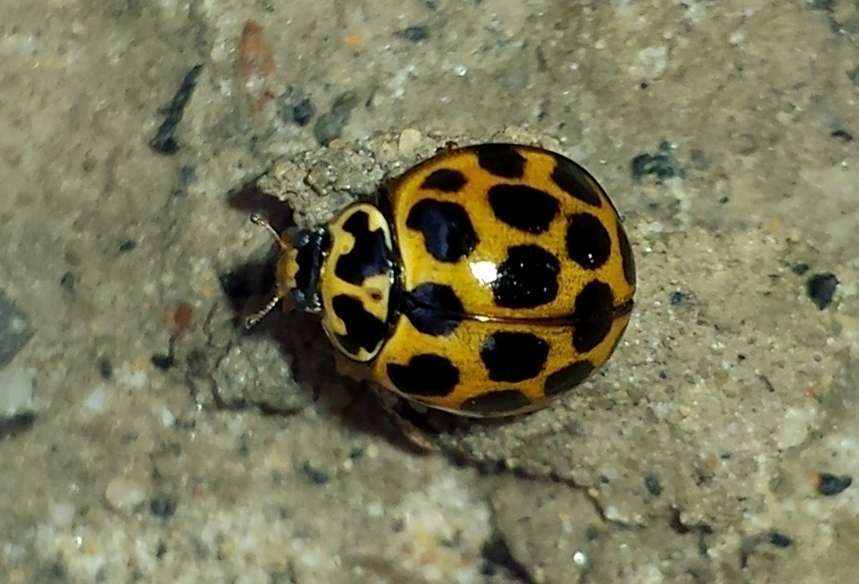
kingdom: Animalia
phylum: Arthropoda
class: Insecta
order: Coleoptera
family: Coccinellidae
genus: Harmonia
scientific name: Harmonia conformis
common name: Common spotted ladybird beetle
